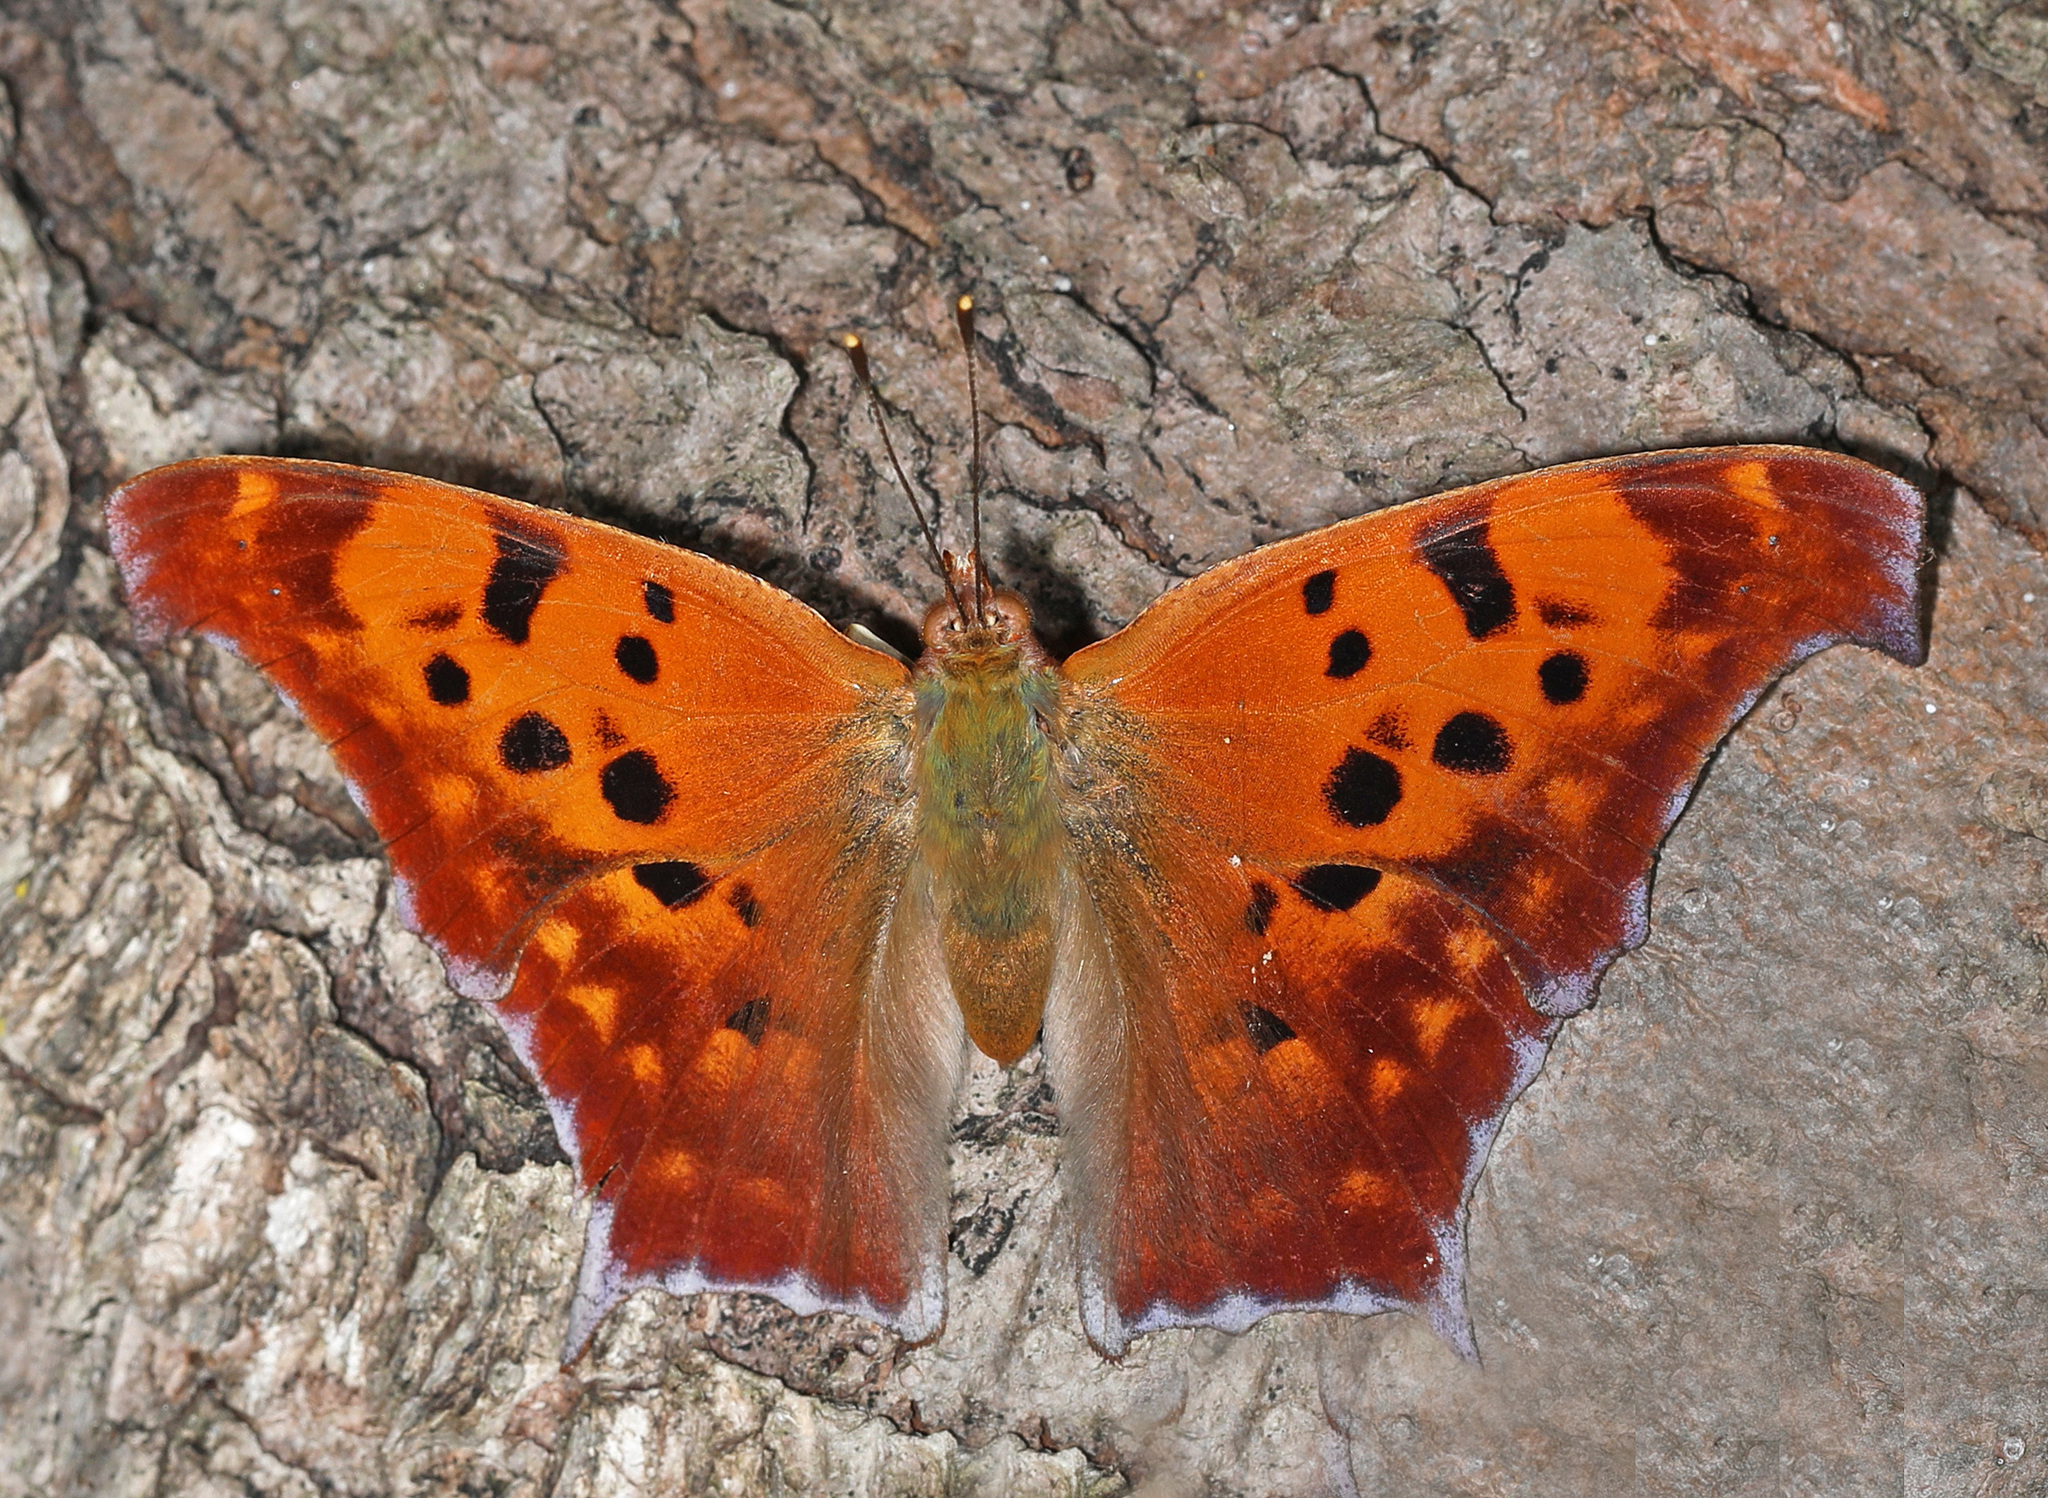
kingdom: Animalia
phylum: Arthropoda
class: Insecta
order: Lepidoptera
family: Nymphalidae
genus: Polygonia
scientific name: Polygonia interrogationis
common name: Question mark
